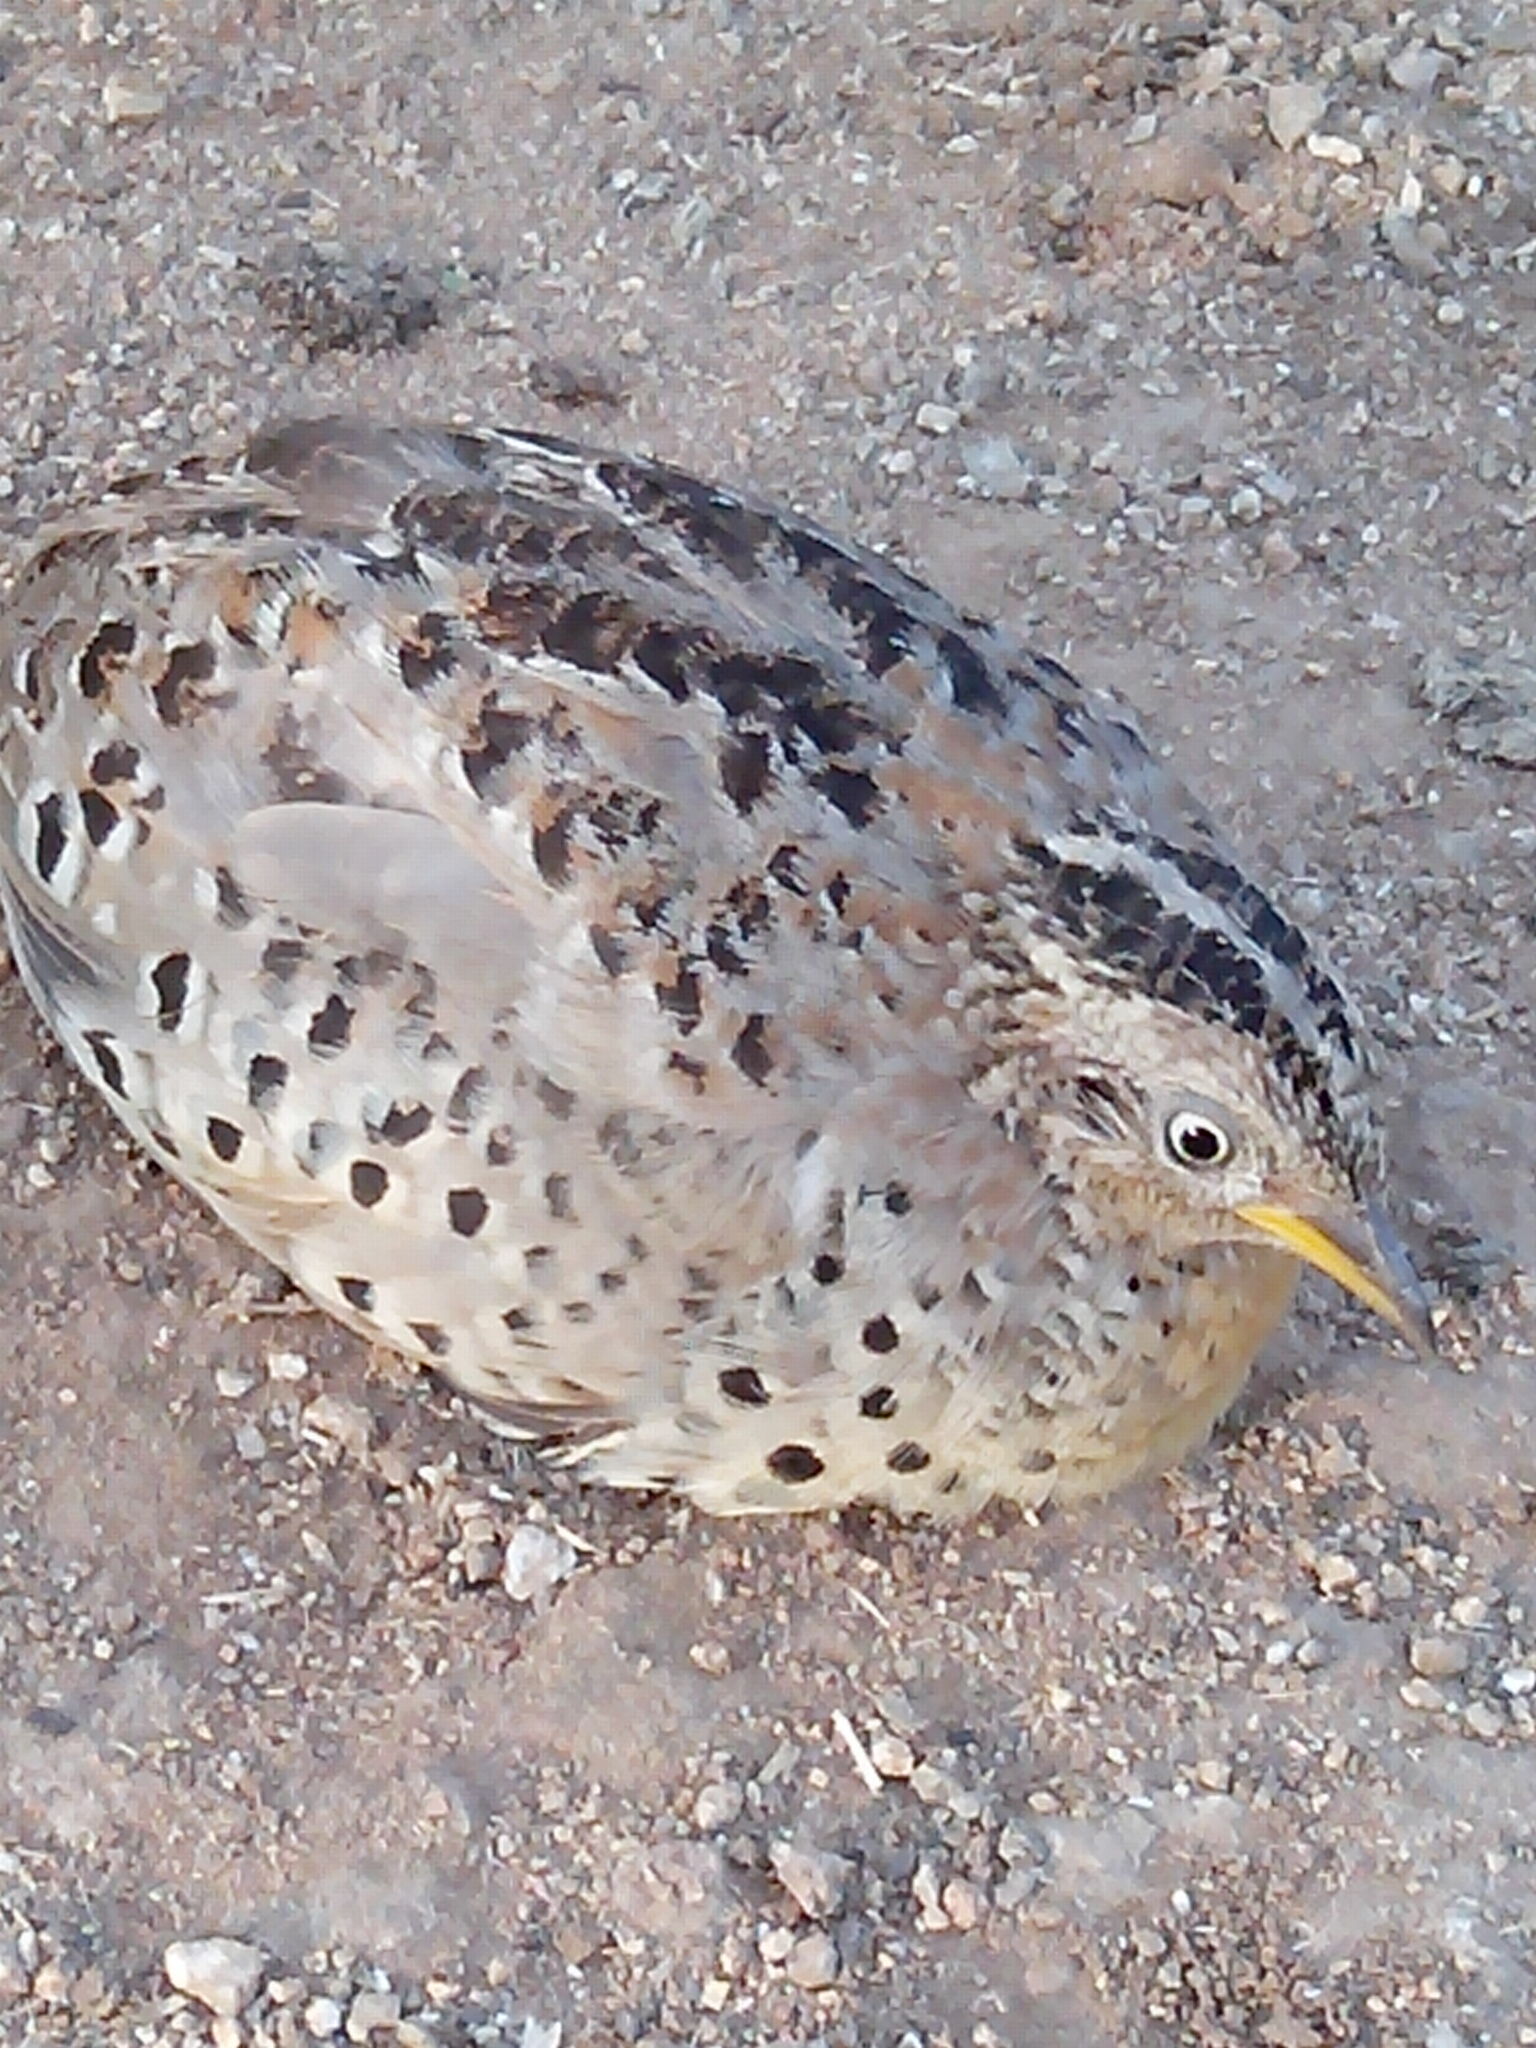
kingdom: Animalia
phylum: Chordata
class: Aves
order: Charadriiformes
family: Turnicidae
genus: Turnix
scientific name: Turnix tanki
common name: Yellow-legged buttonquail
